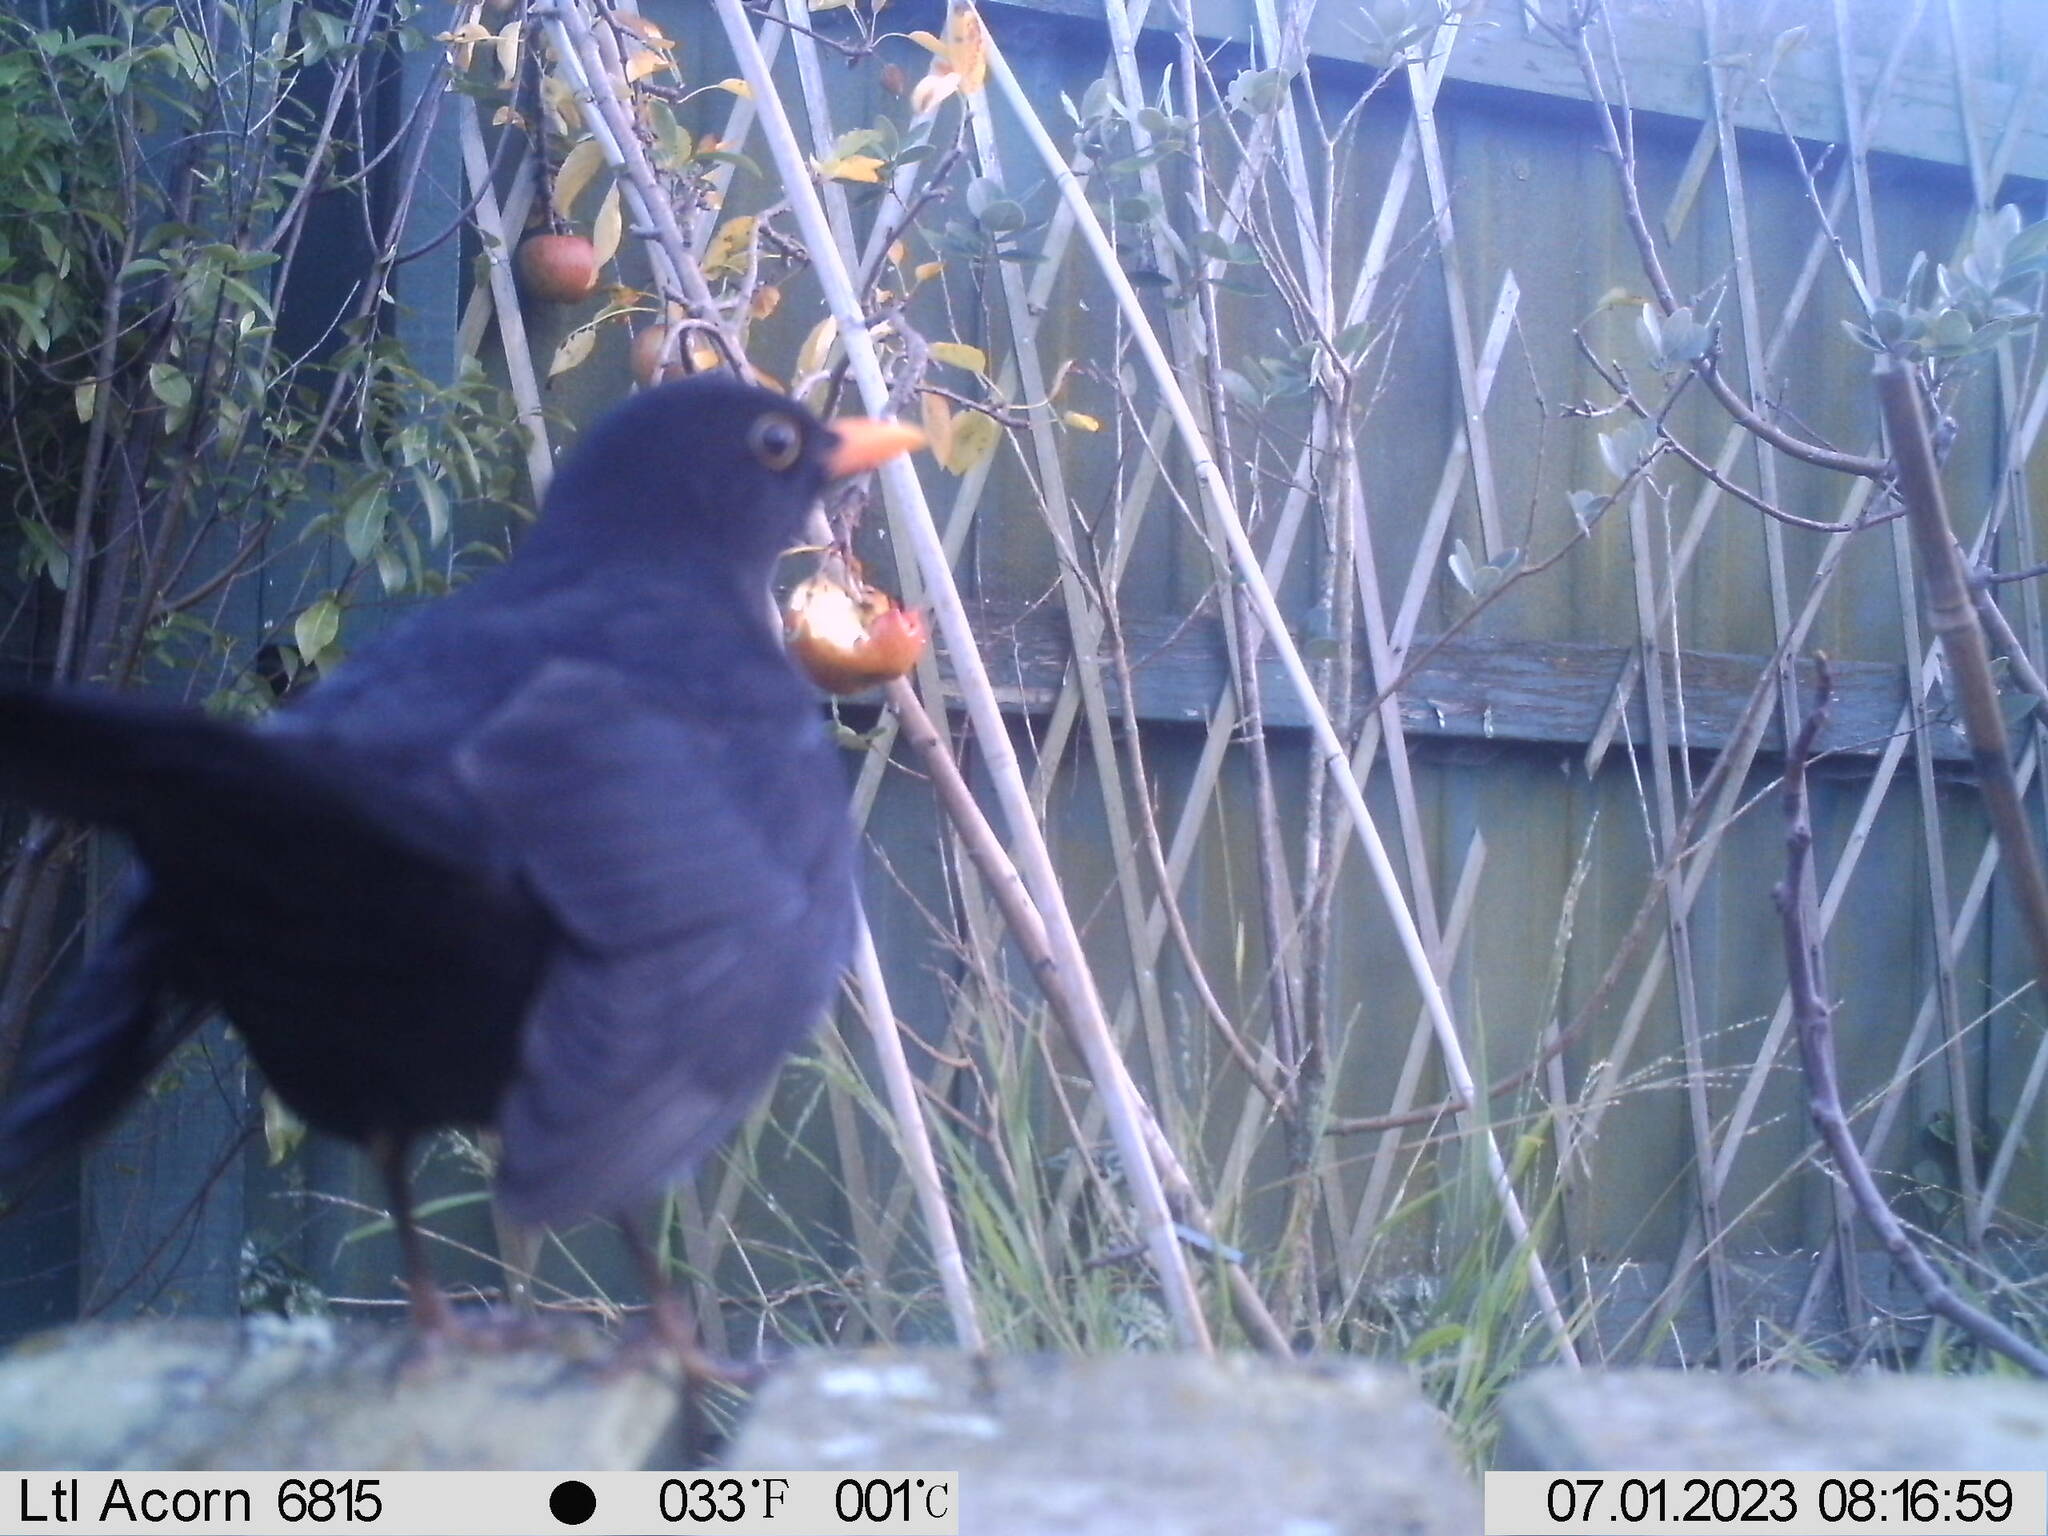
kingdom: Animalia
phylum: Chordata
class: Aves
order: Passeriformes
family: Turdidae
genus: Turdus
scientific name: Turdus merula
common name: Common blackbird
